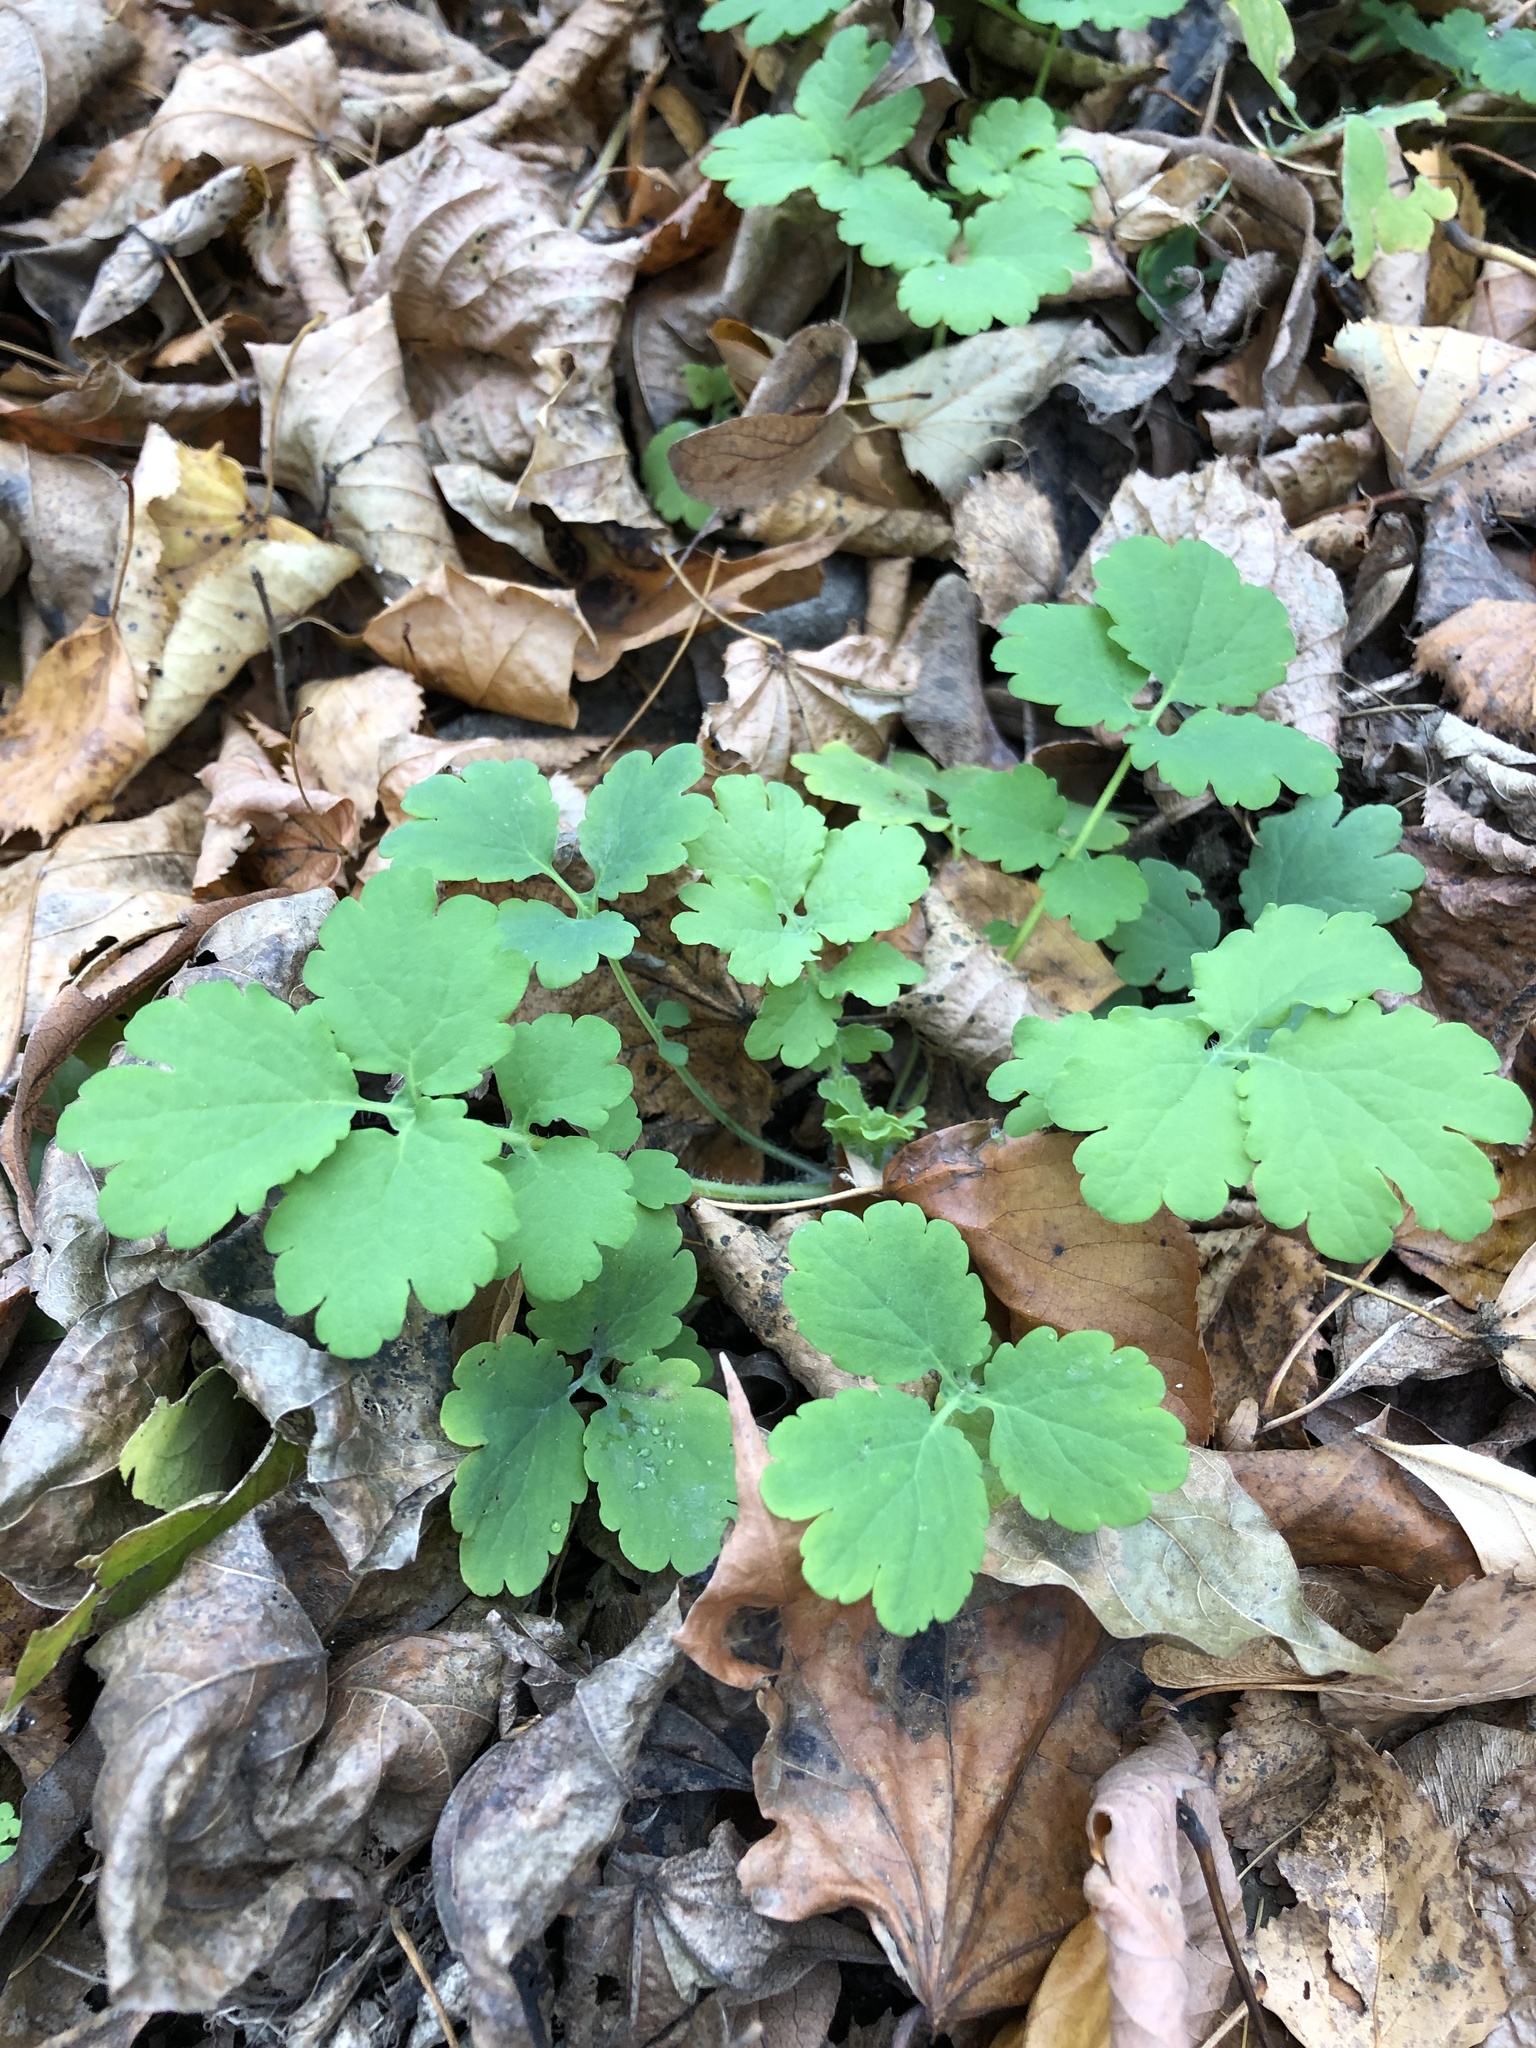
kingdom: Plantae
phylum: Tracheophyta
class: Magnoliopsida
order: Ranunculales
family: Papaveraceae
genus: Chelidonium
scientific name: Chelidonium majus
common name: Greater celandine
